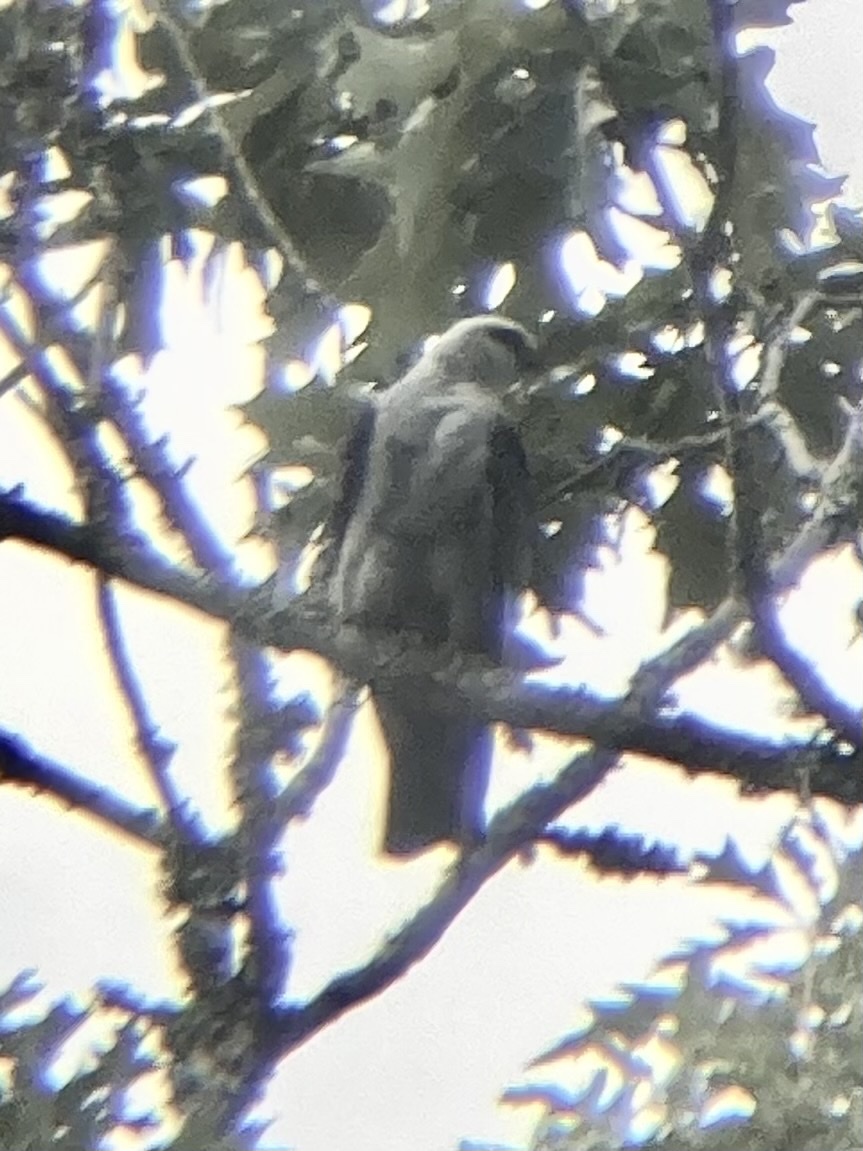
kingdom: Animalia
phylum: Chordata
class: Aves
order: Accipitriformes
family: Accipitridae
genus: Ictinia
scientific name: Ictinia mississippiensis
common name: Mississippi kite
